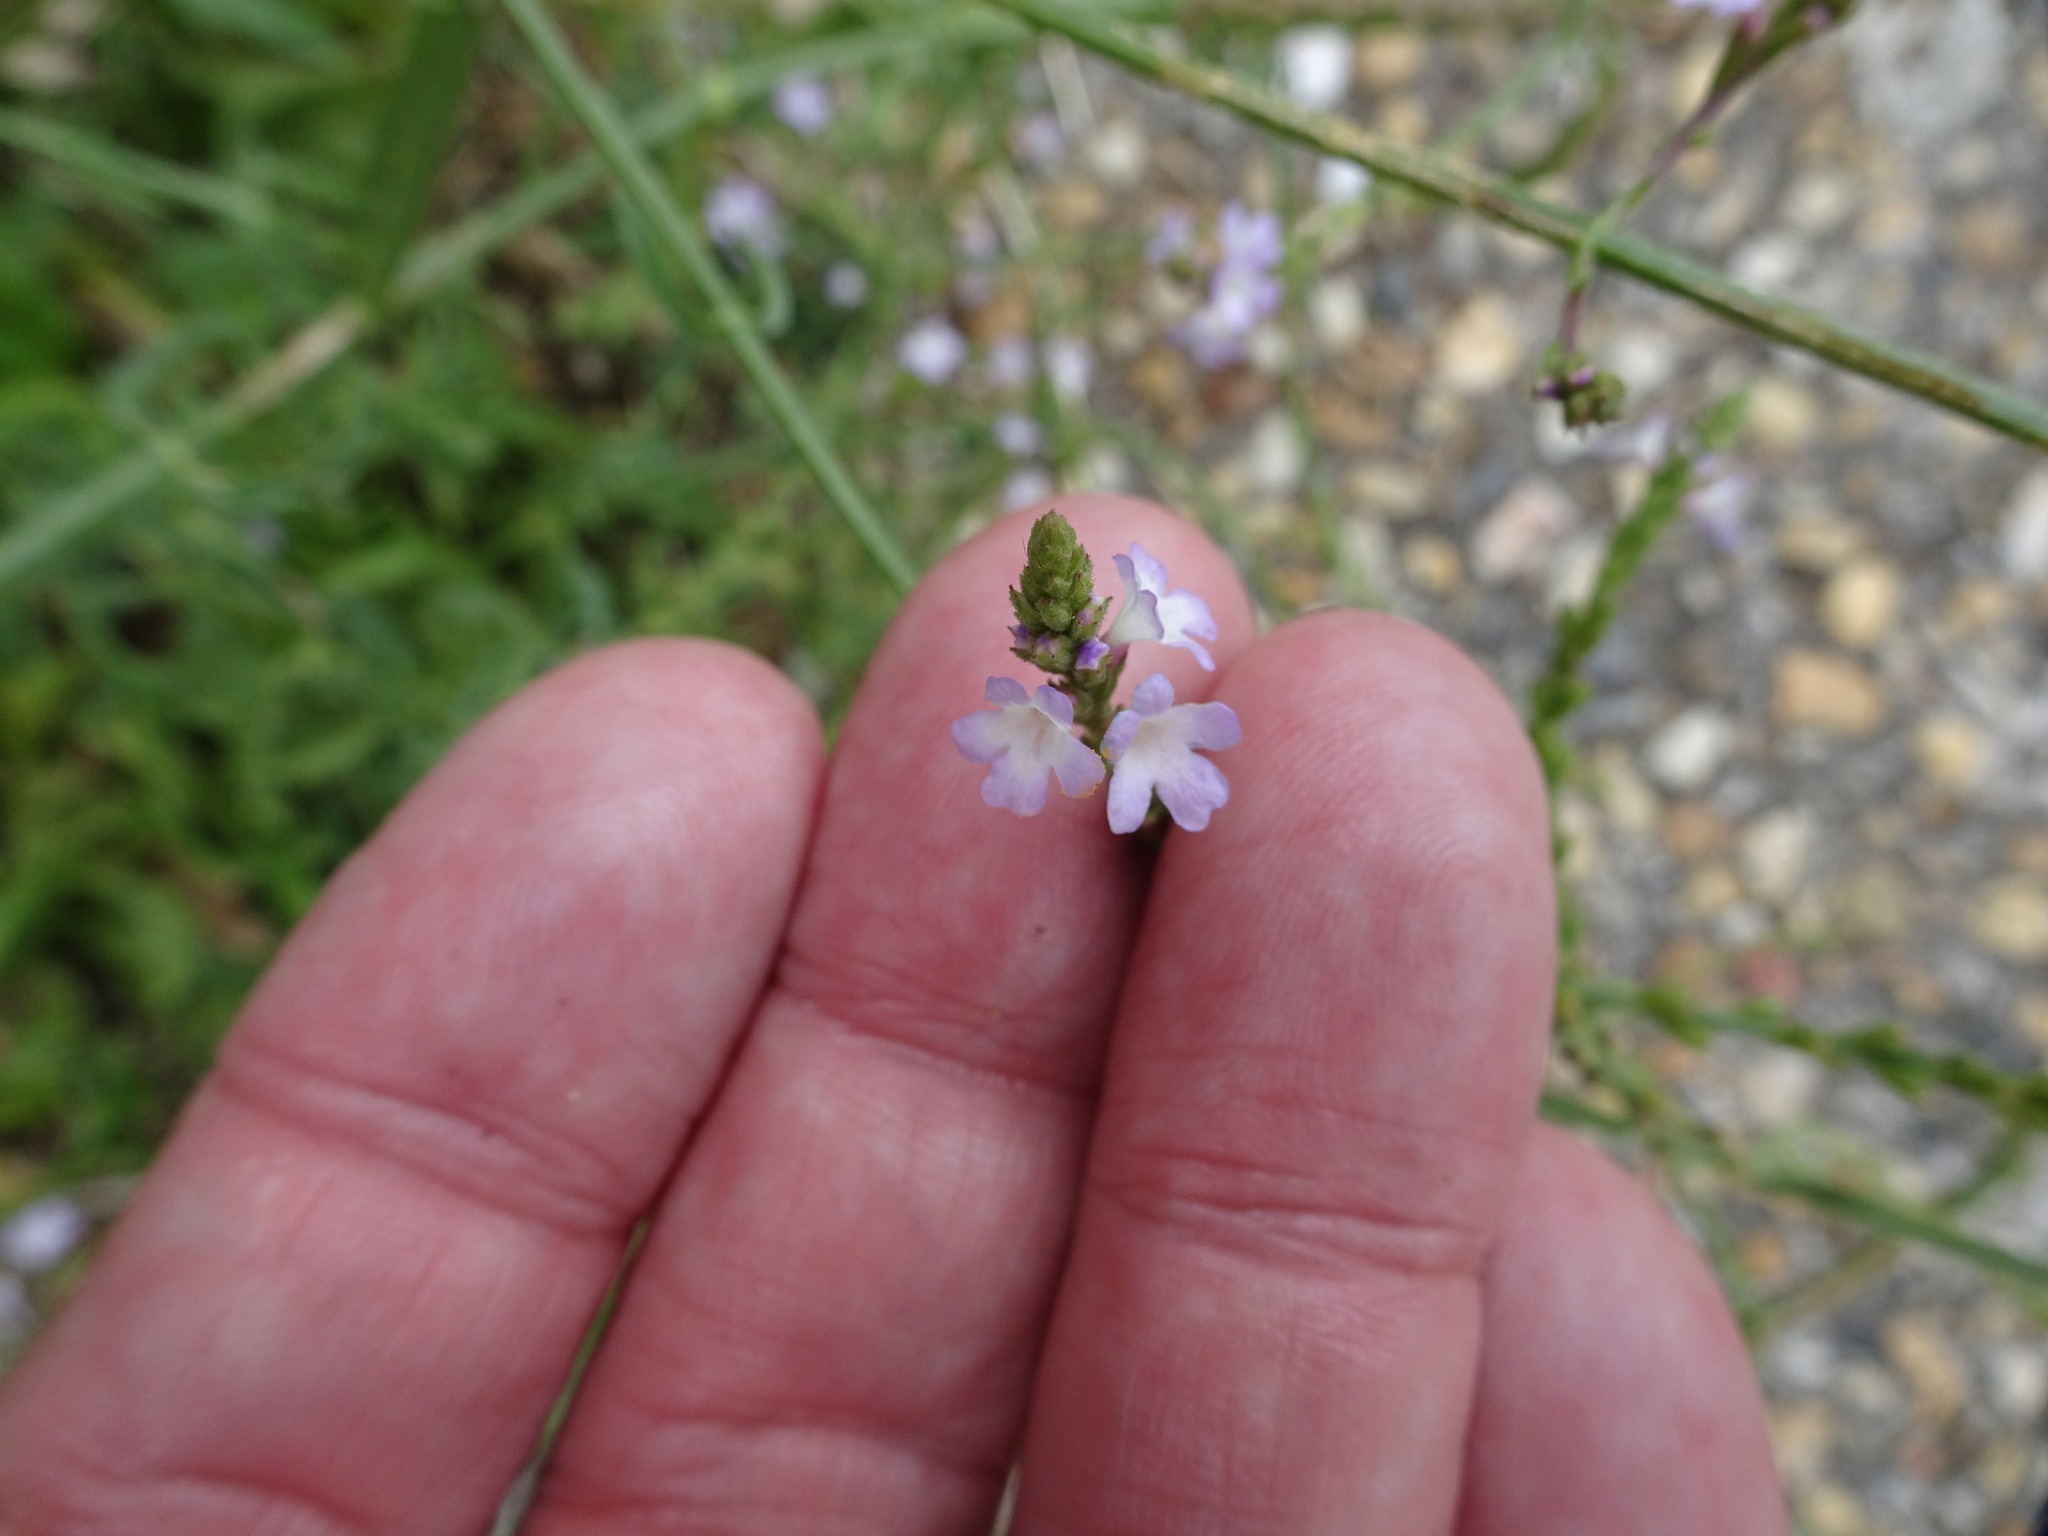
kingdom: Plantae
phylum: Tracheophyta
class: Magnoliopsida
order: Lamiales
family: Verbenaceae
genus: Verbena
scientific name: Verbena officinalis
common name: Vervain
